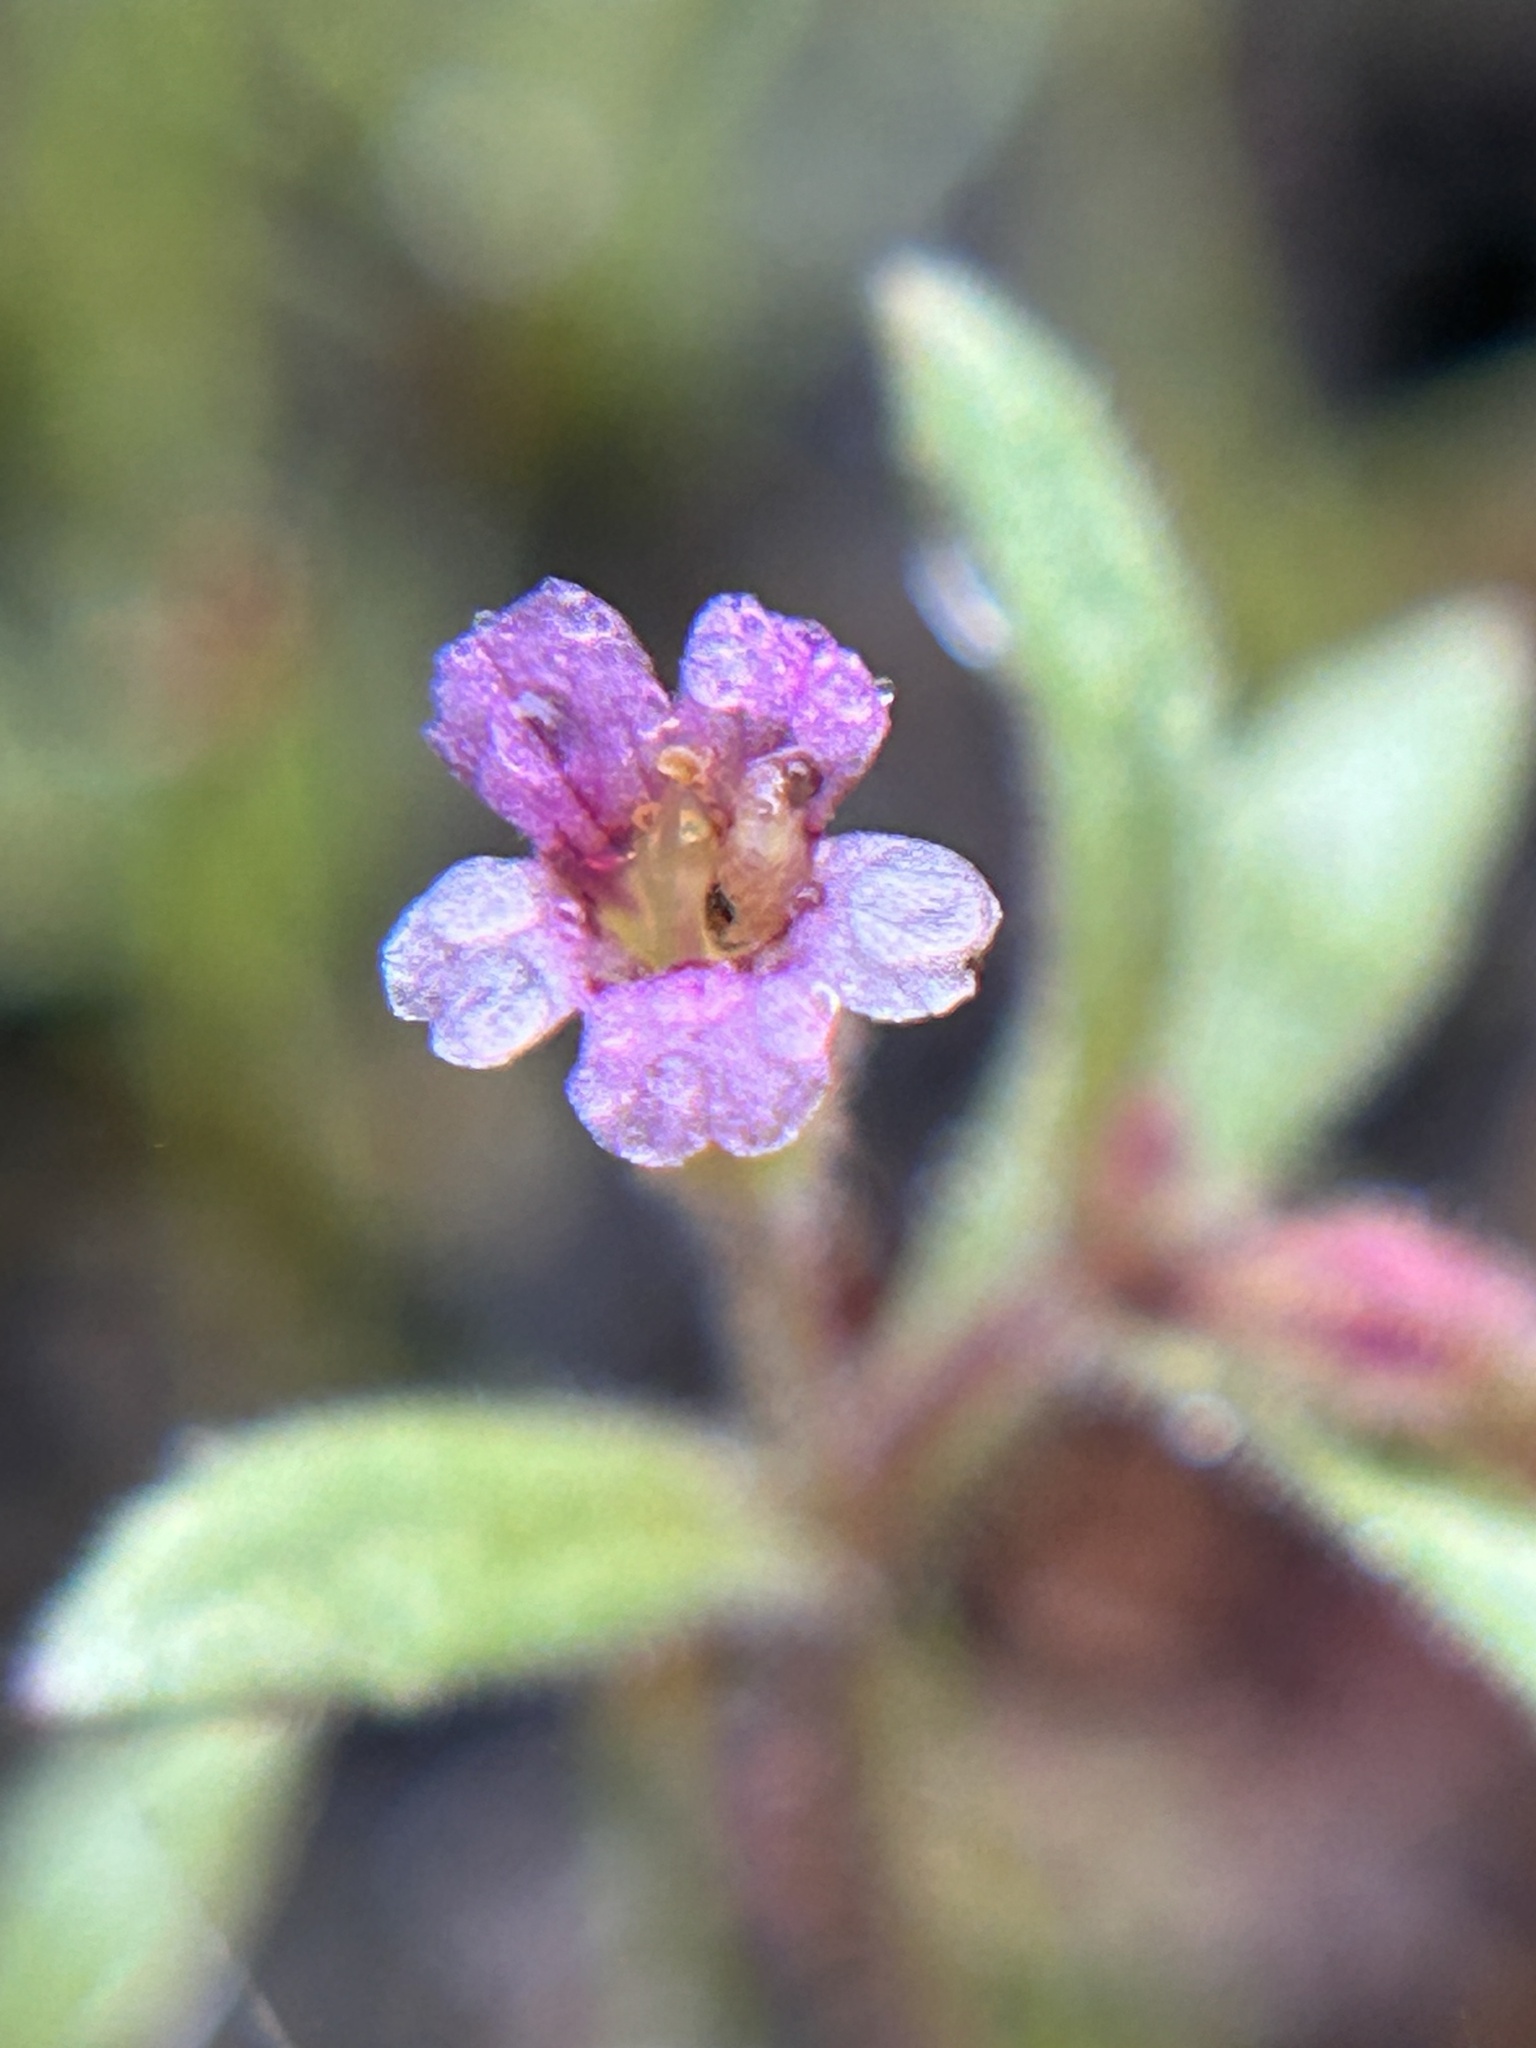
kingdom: Plantae
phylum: Tracheophyta
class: Magnoliopsida
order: Lamiales
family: Phrymaceae
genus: Erythranthe
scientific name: Erythranthe breweri
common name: Brewer's monkeyflower
